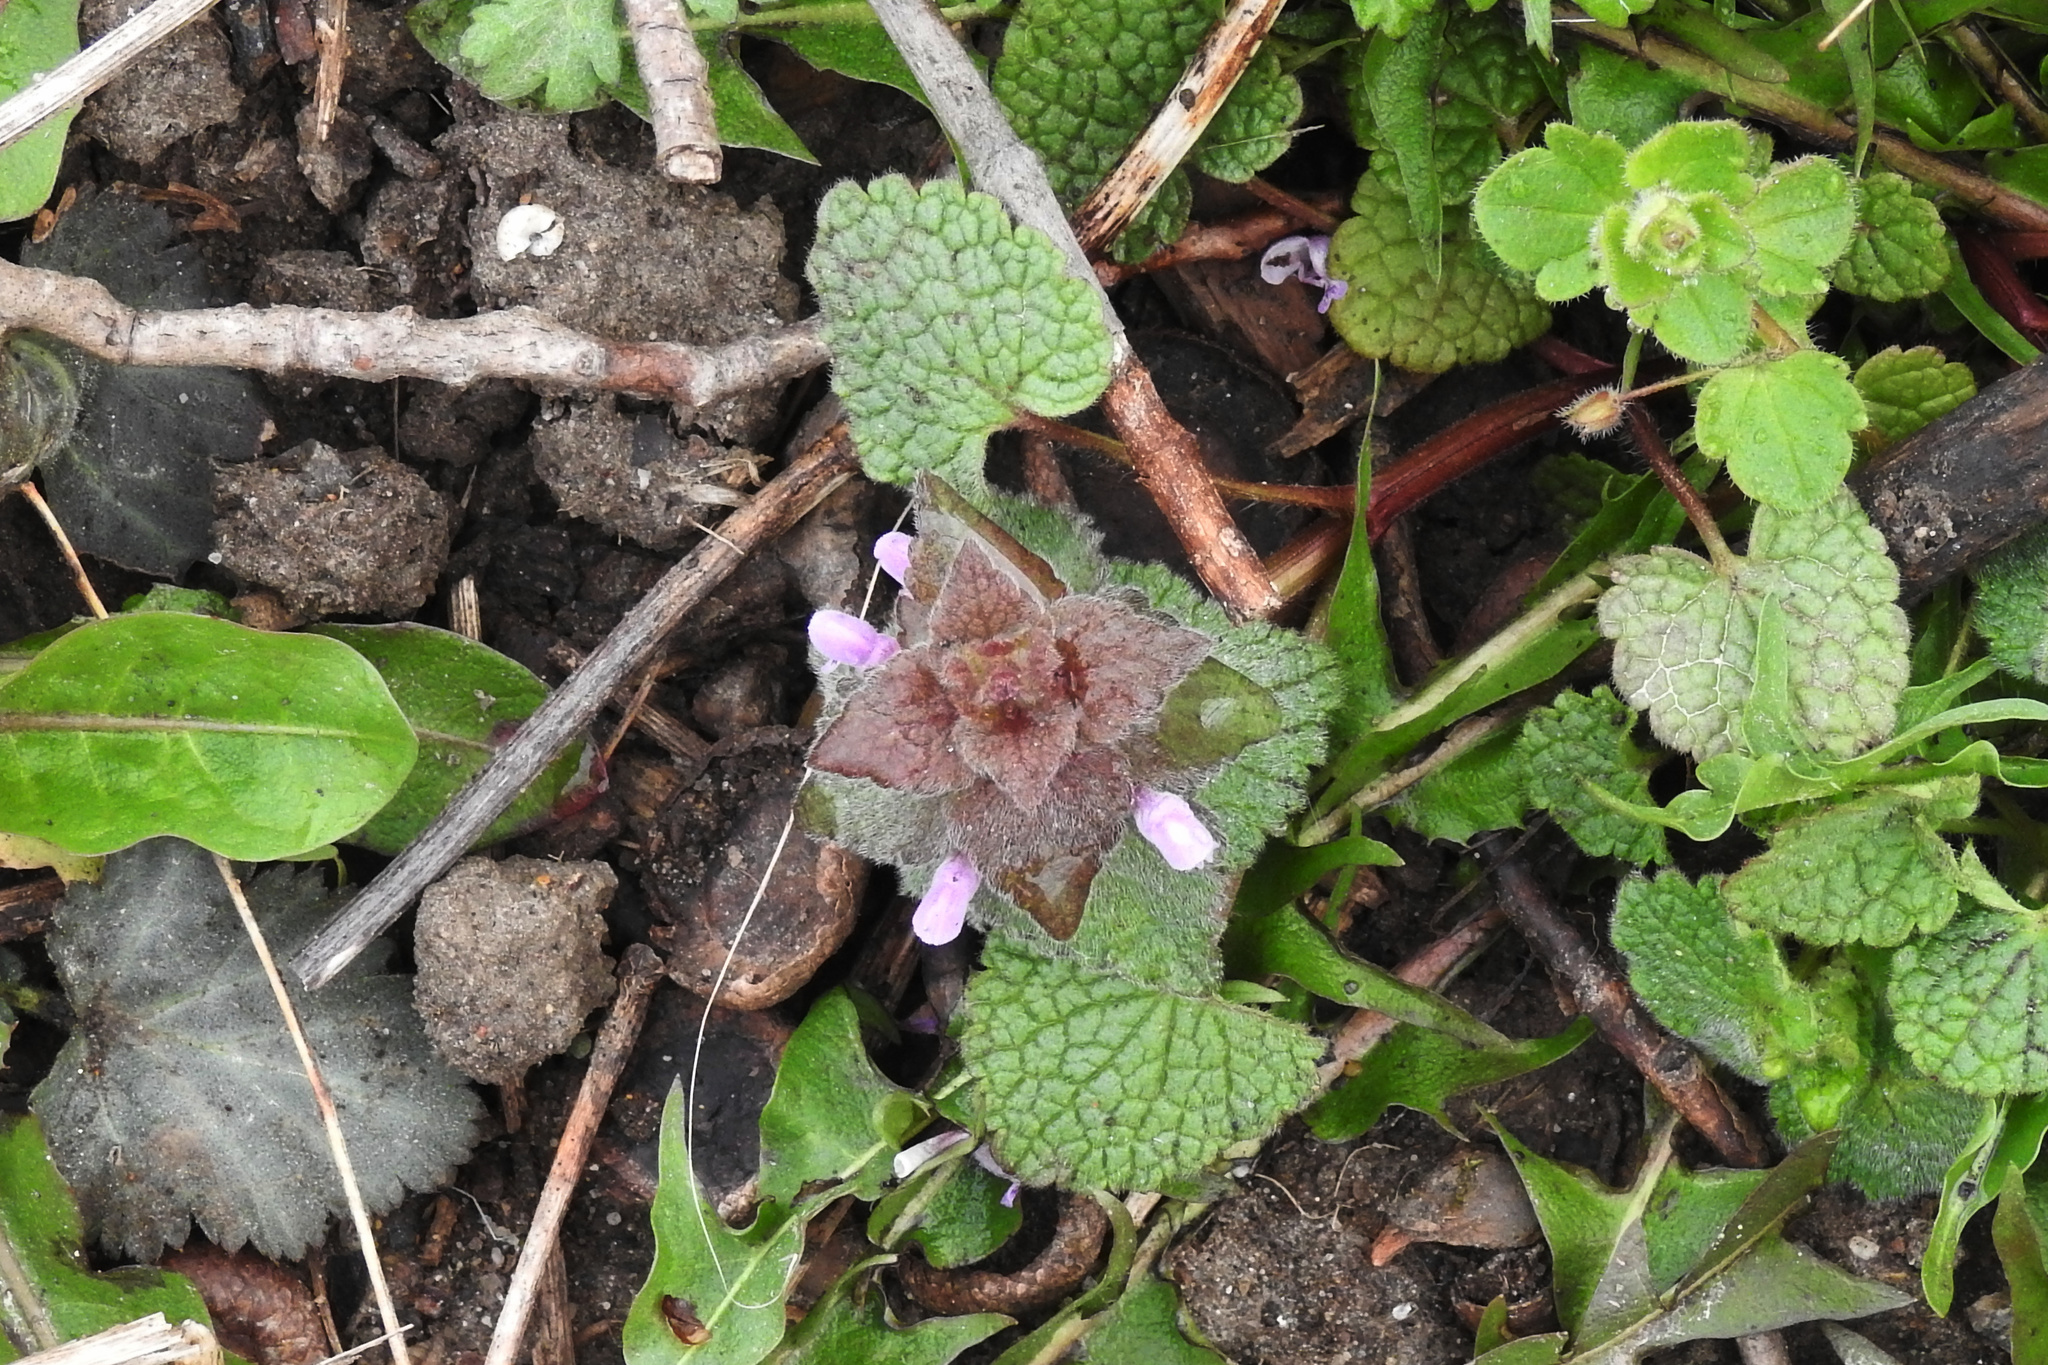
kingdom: Plantae
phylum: Tracheophyta
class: Magnoliopsida
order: Lamiales
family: Lamiaceae
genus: Lamium
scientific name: Lamium purpureum
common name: Red dead-nettle
